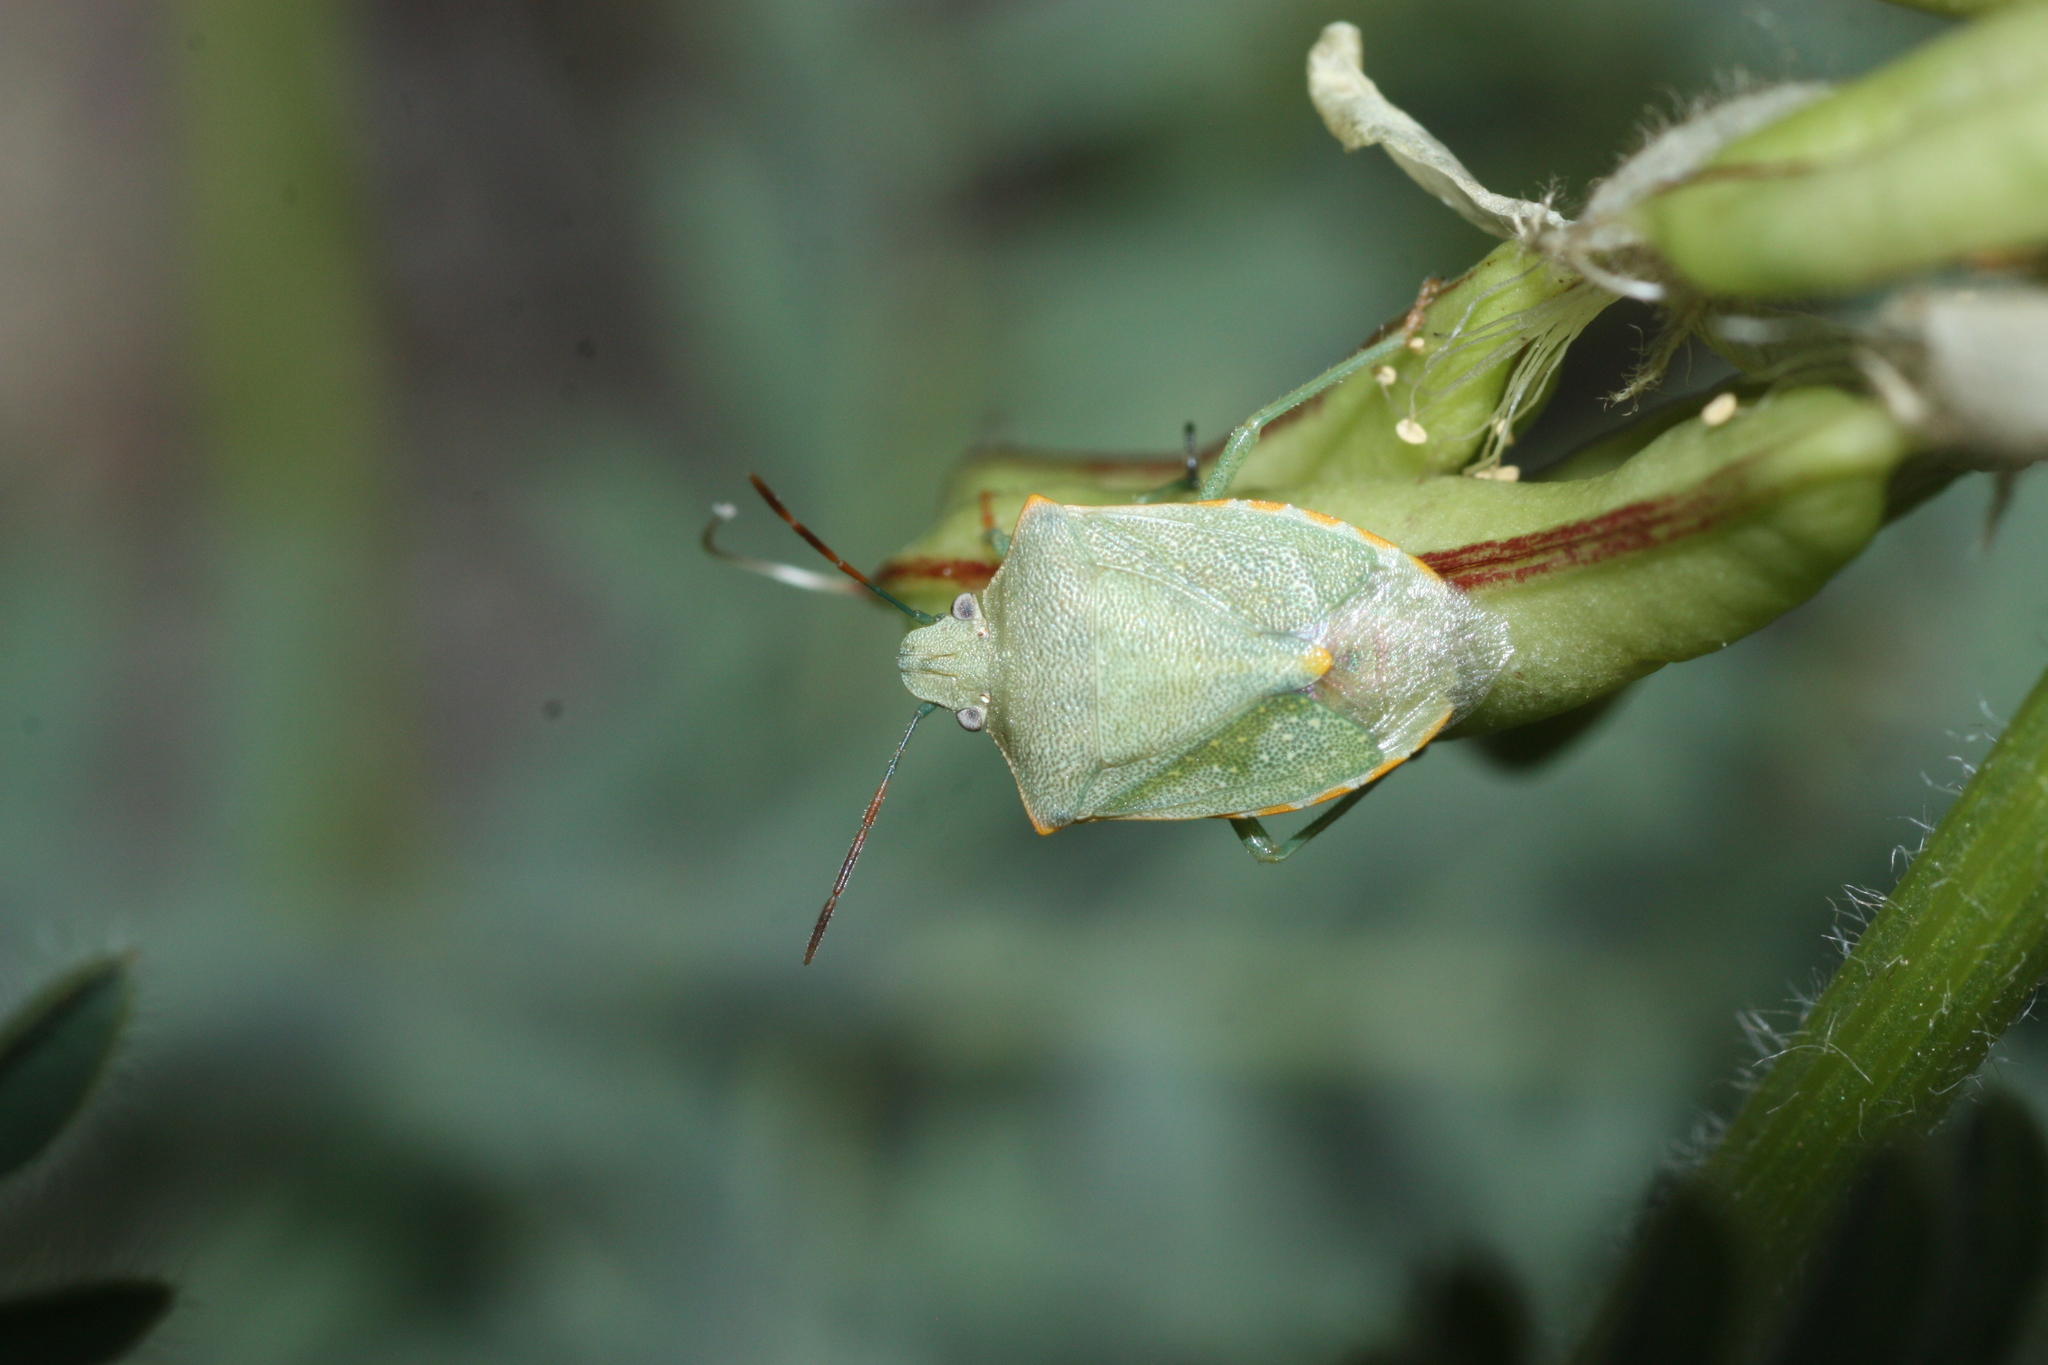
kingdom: Animalia
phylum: Arthropoda
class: Insecta
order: Hemiptera
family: Pentatomidae
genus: Thyanta
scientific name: Thyanta accerra
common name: Stink bug
